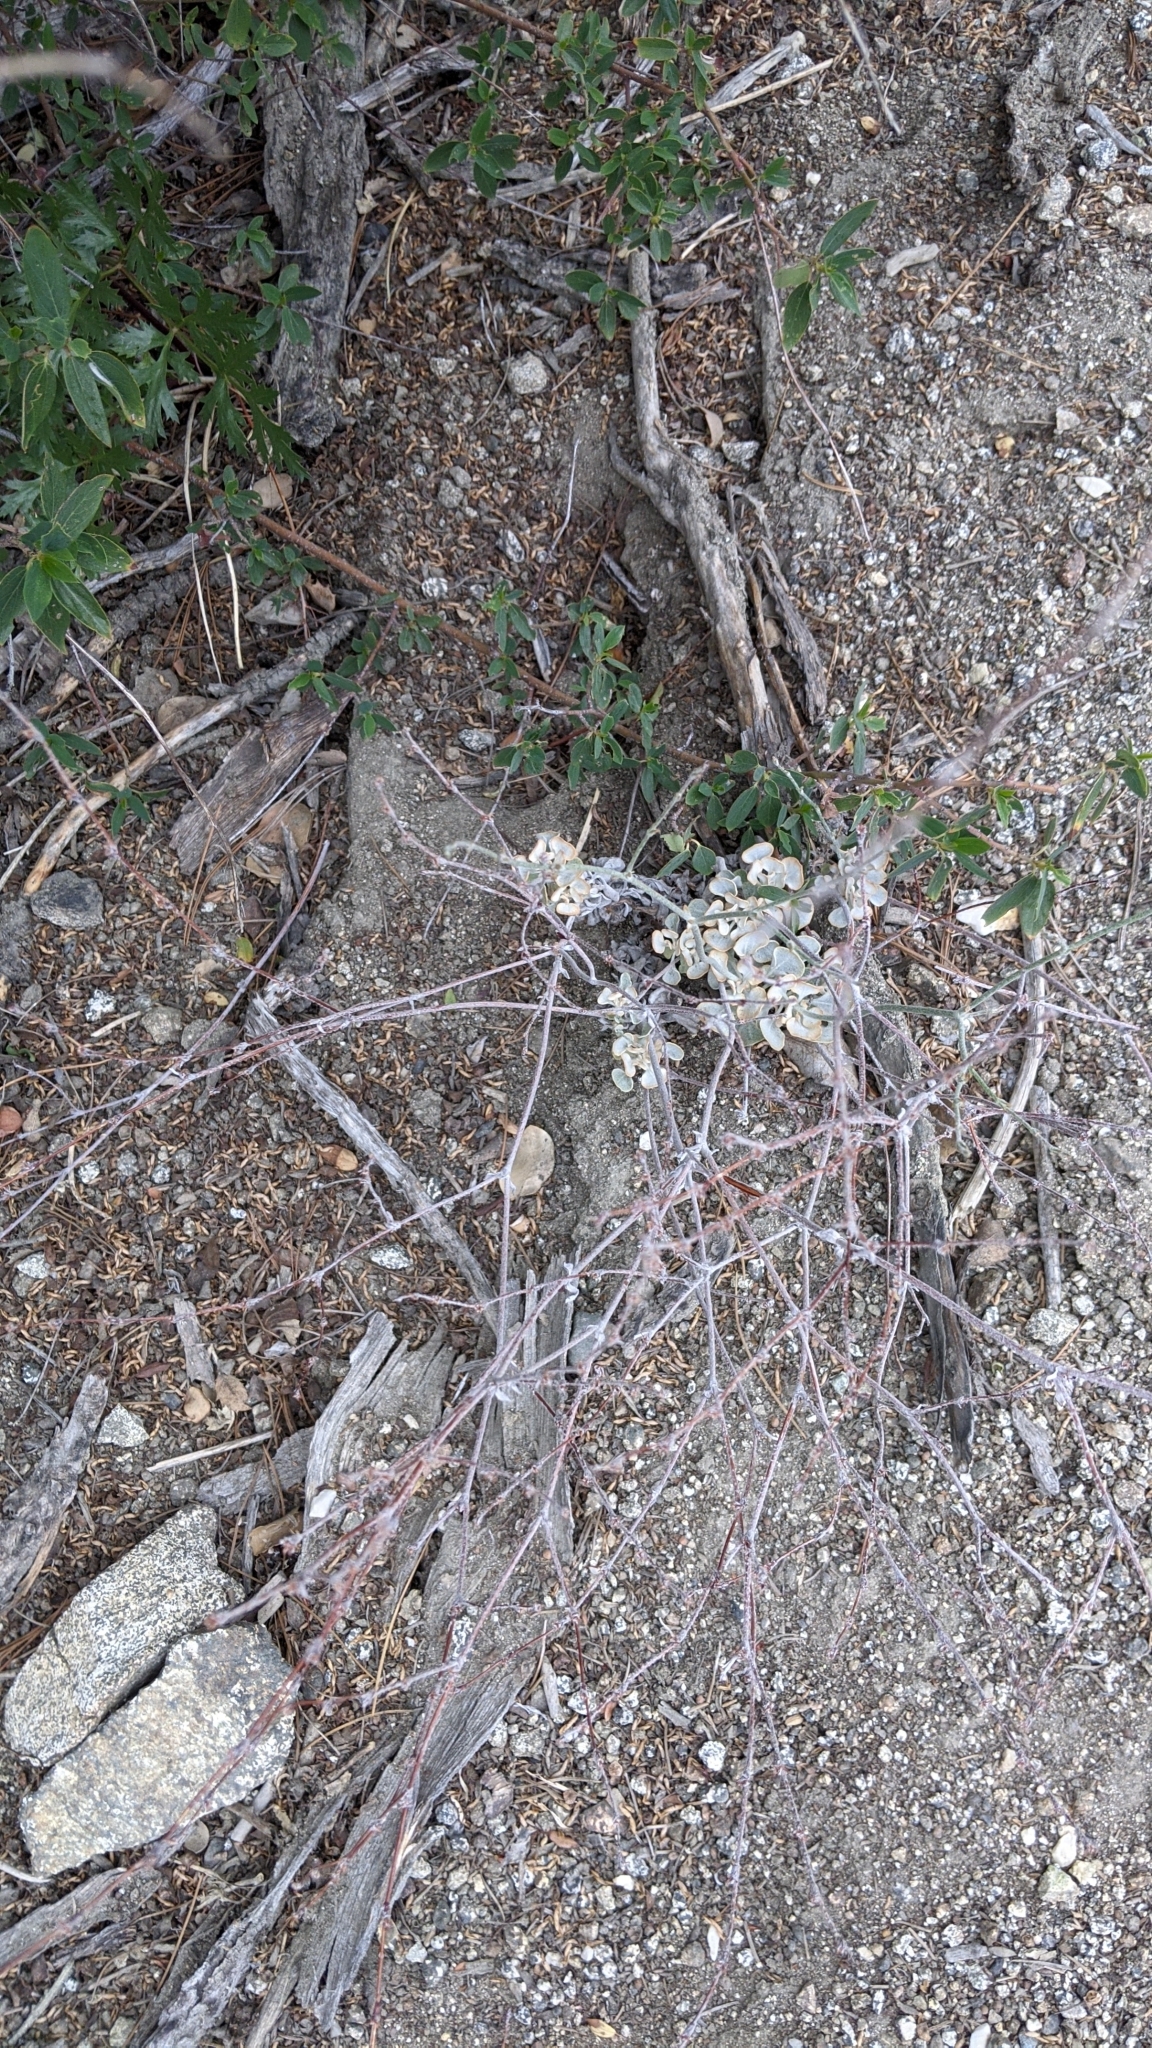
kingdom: Plantae
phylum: Tracheophyta
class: Magnoliopsida
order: Caryophyllales
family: Polygonaceae
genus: Eriogonum
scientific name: Eriogonum saxatile
